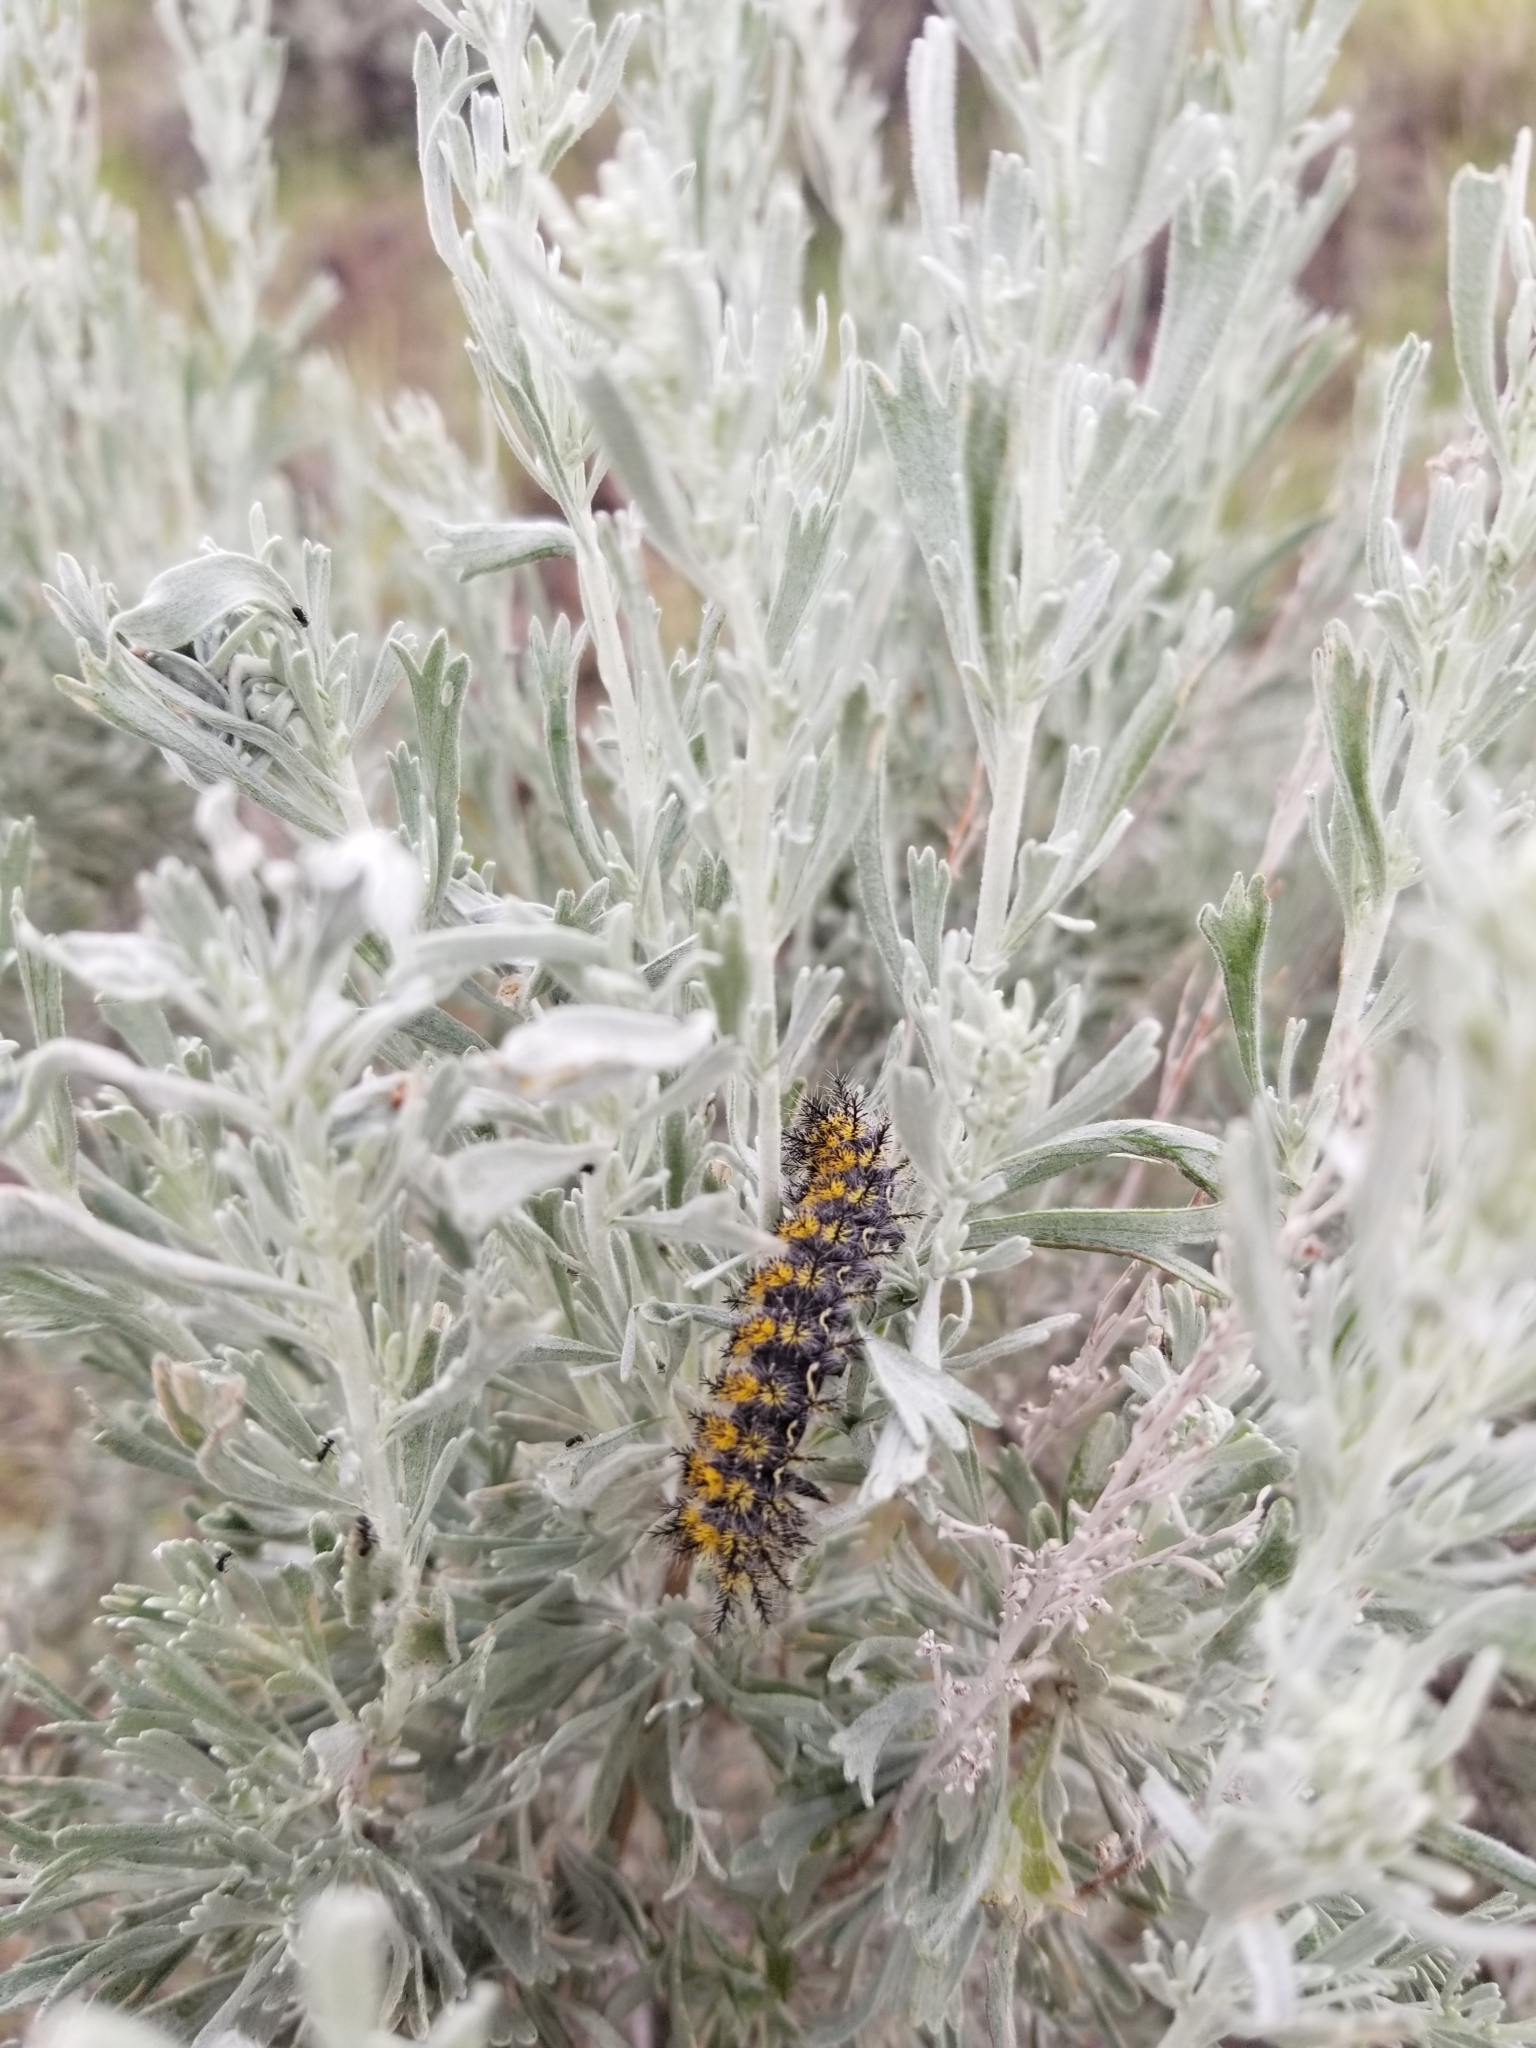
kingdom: Animalia
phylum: Arthropoda
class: Insecta
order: Lepidoptera
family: Saturniidae
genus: Hemileuca
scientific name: Hemileuca hera
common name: Hera sheepmoth
